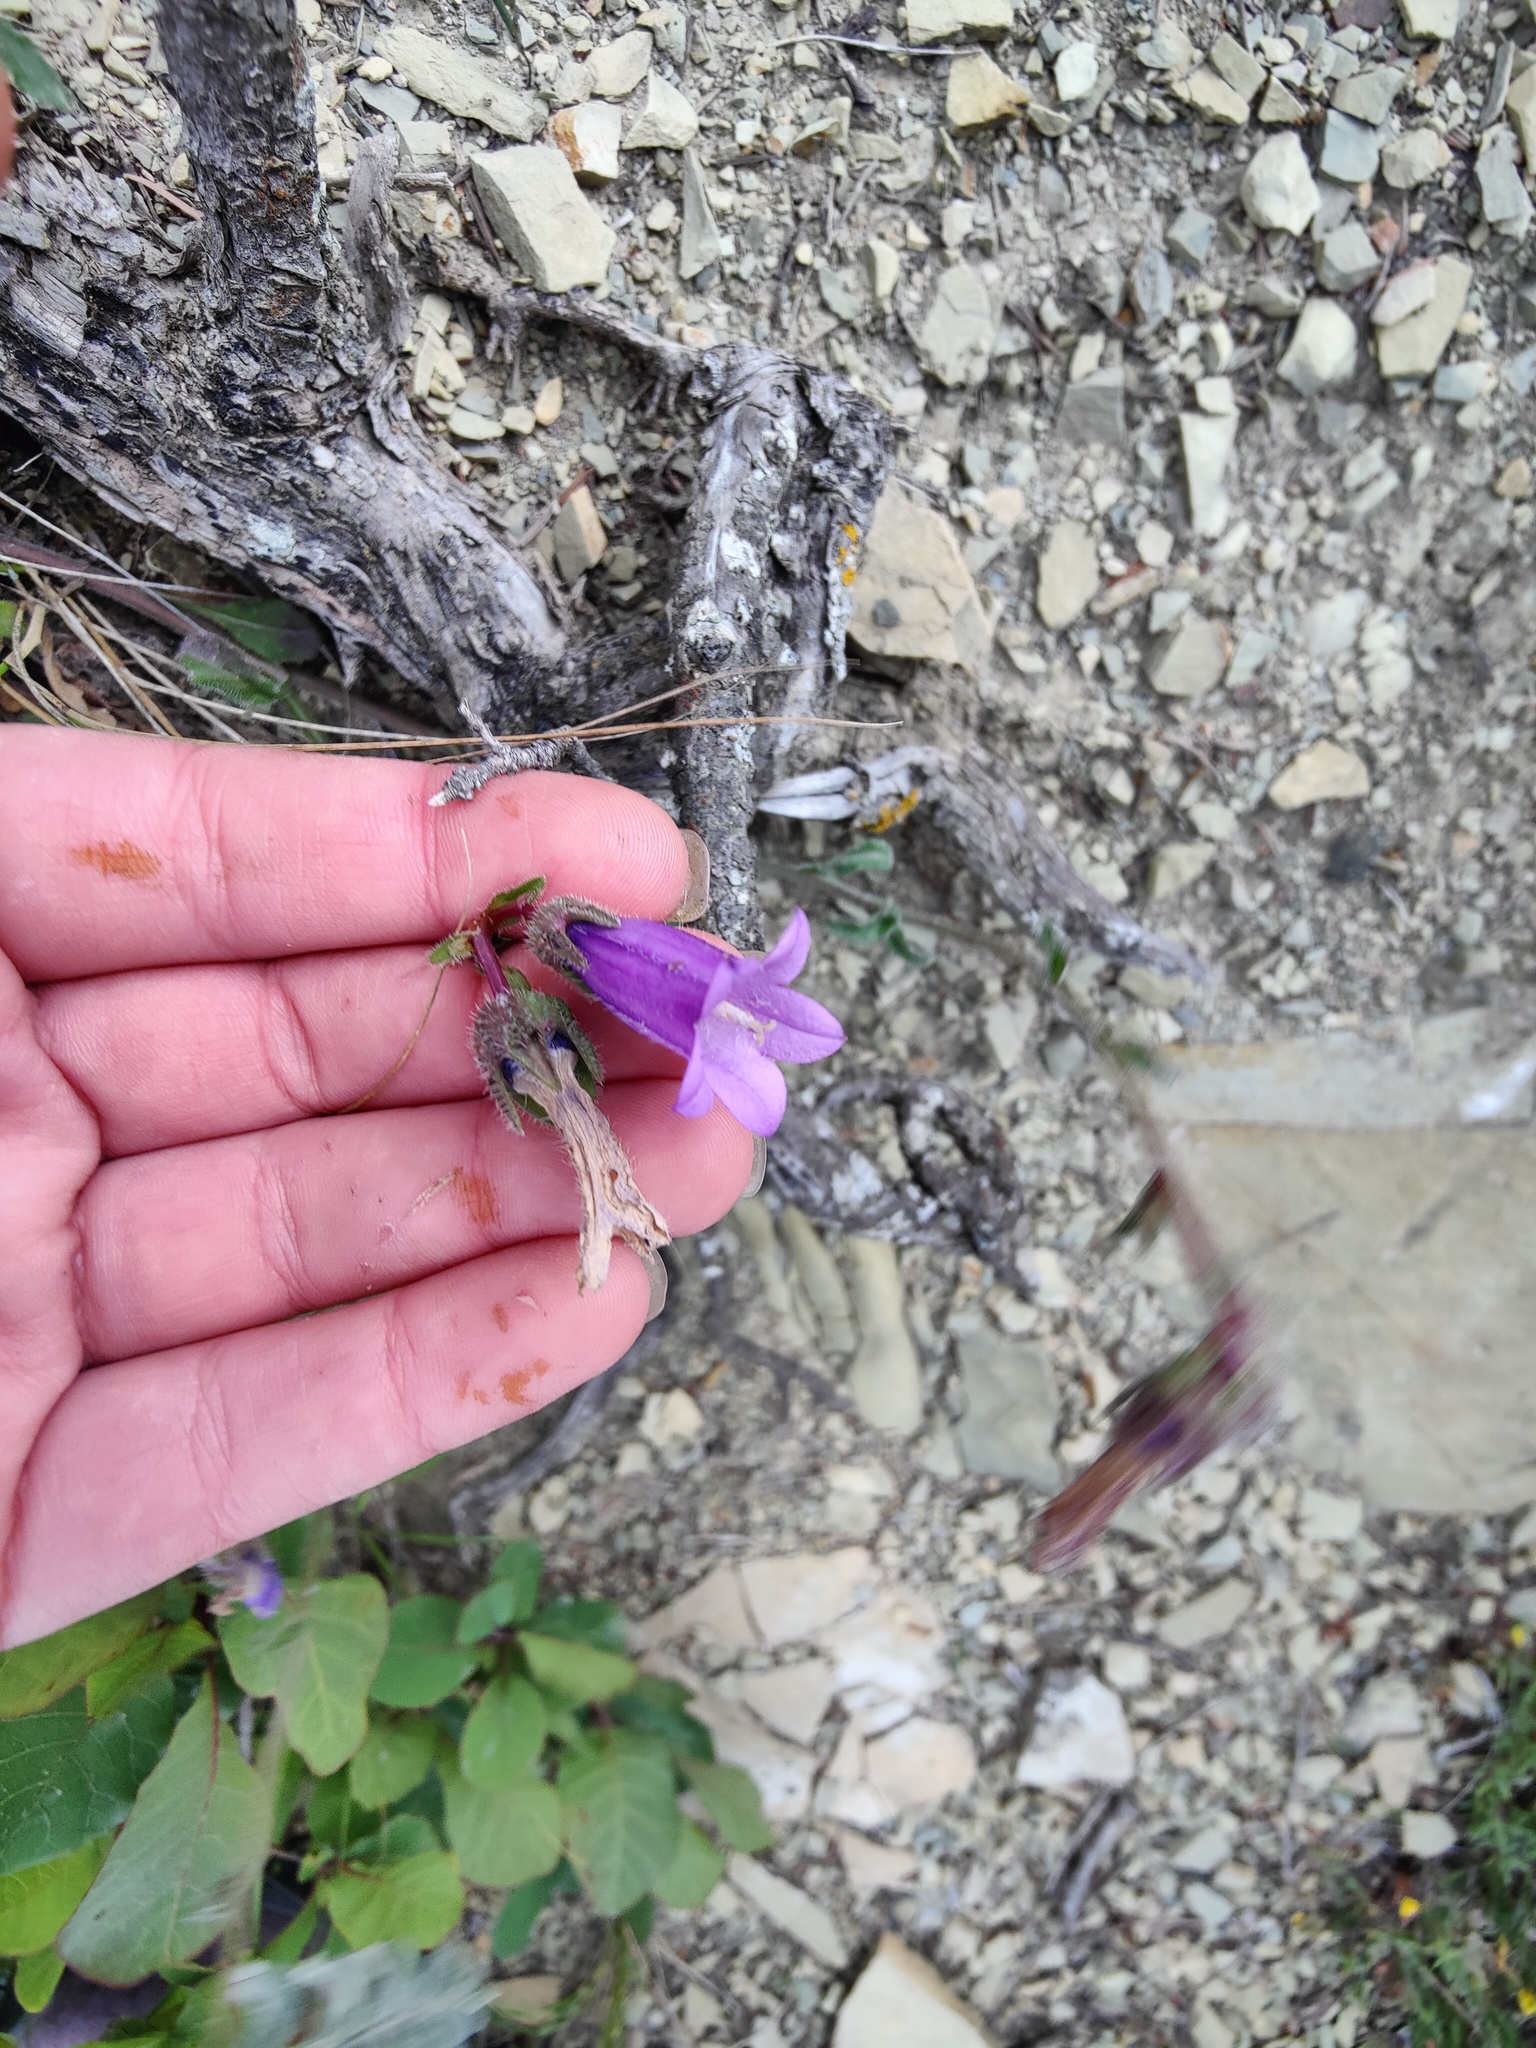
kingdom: Plantae
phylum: Tracheophyta
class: Magnoliopsida
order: Asterales
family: Campanulaceae
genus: Campanula
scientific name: Campanula komarovii
